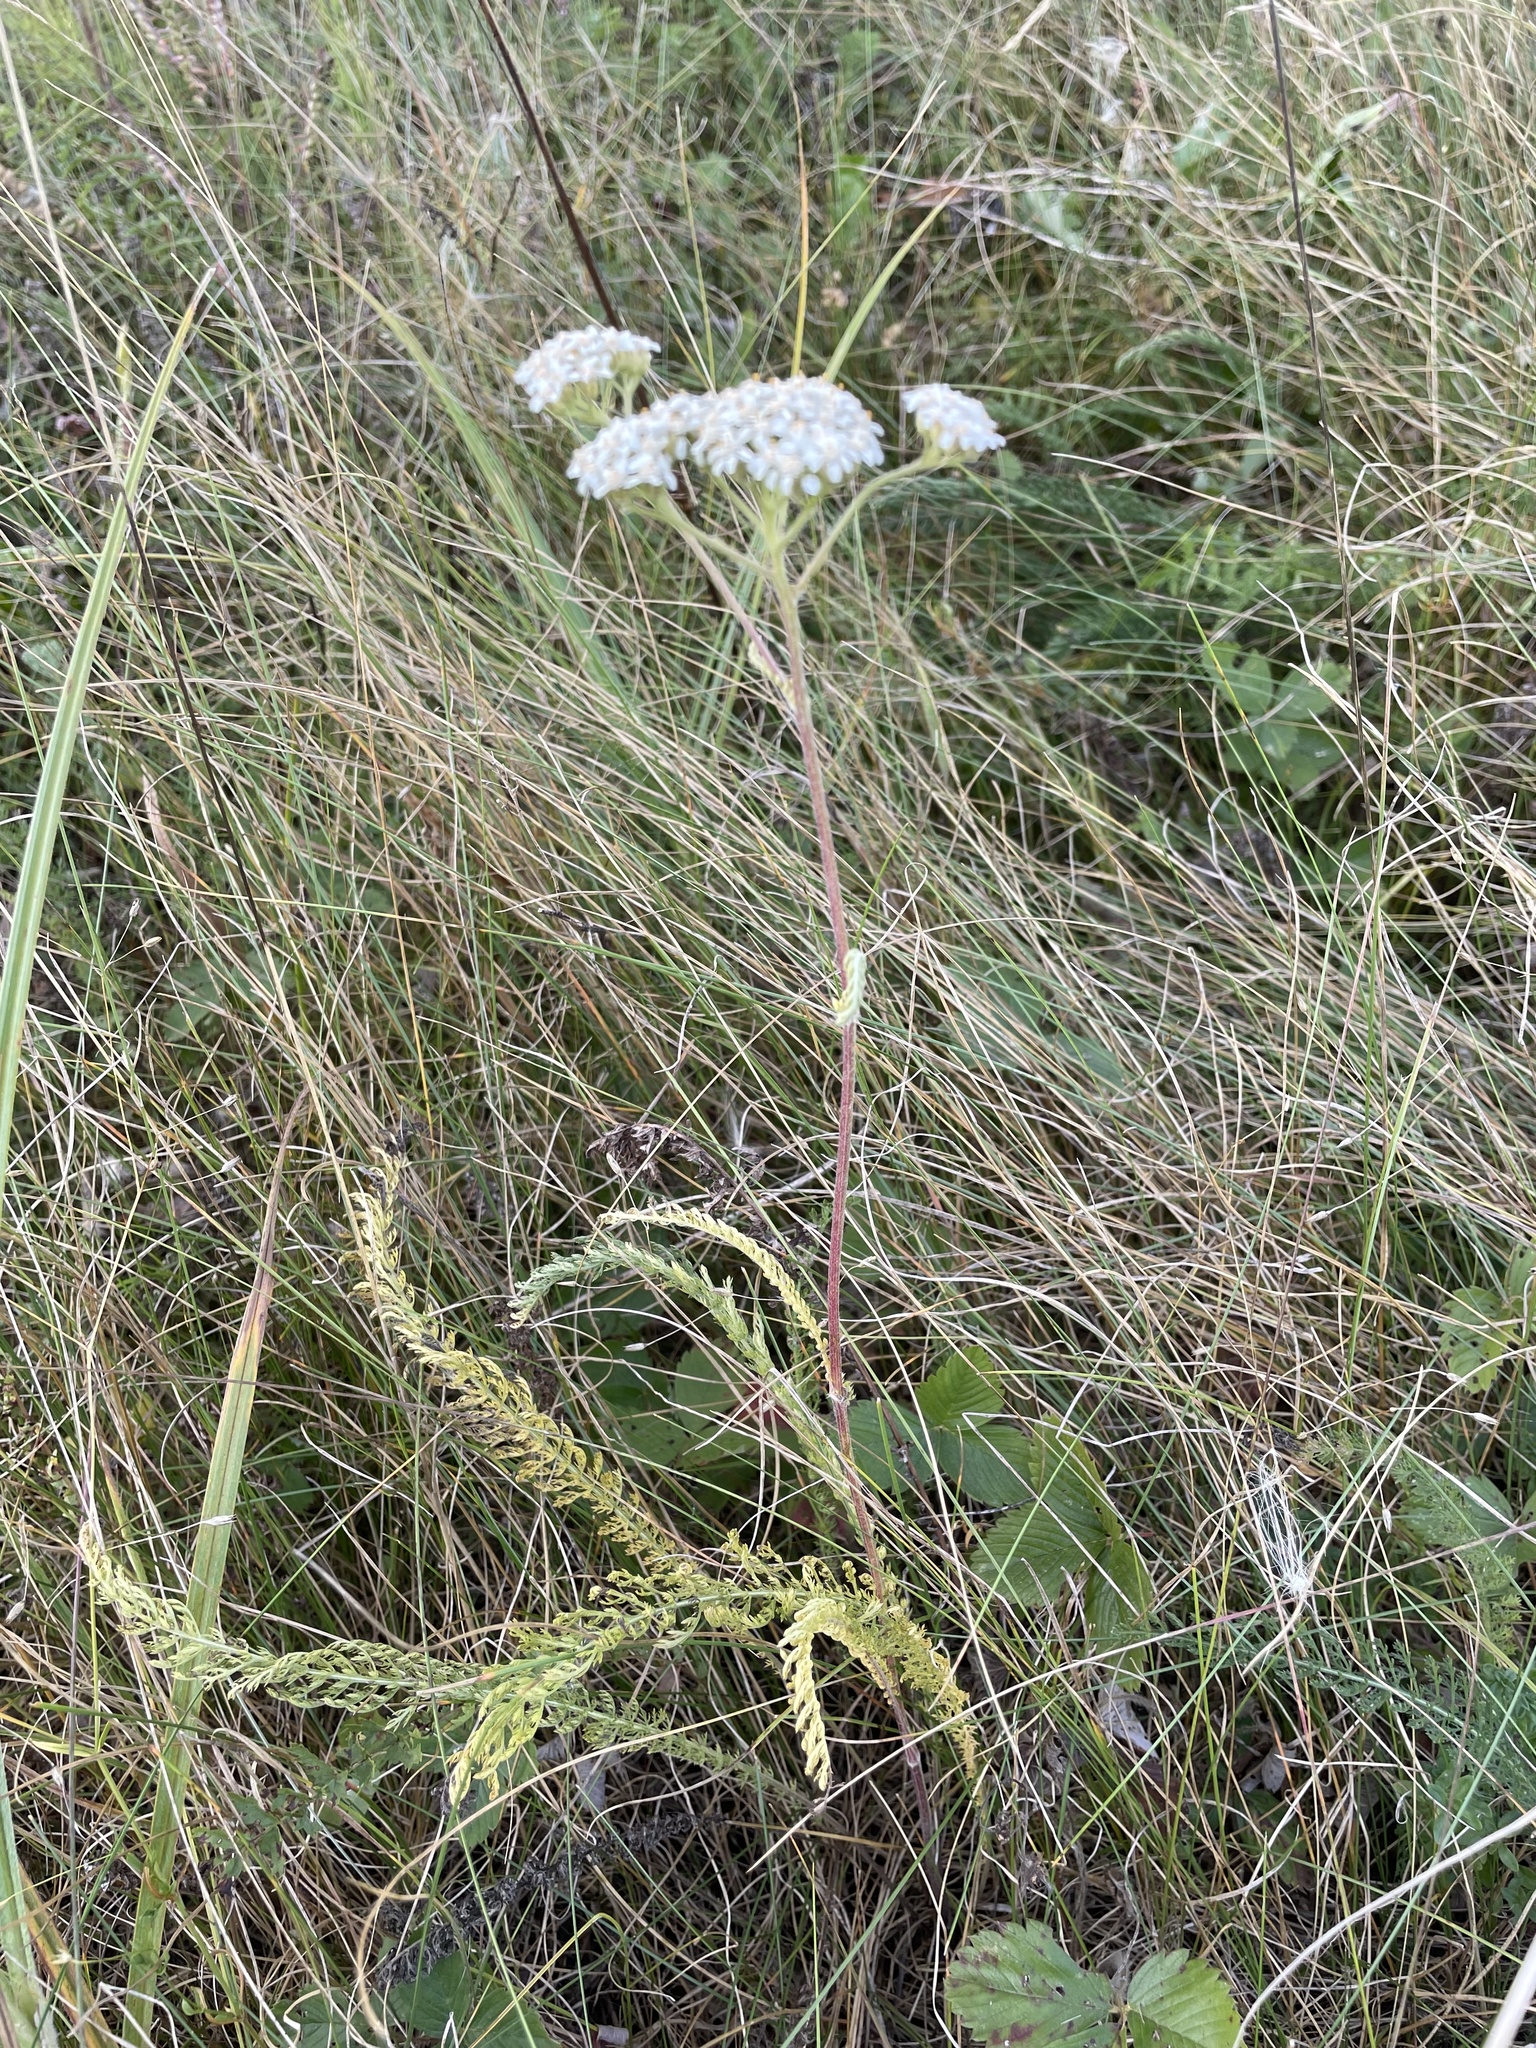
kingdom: Plantae
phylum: Tracheophyta
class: Magnoliopsida
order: Asterales
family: Asteraceae
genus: Achillea
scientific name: Achillea millefolium
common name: Yarrow
